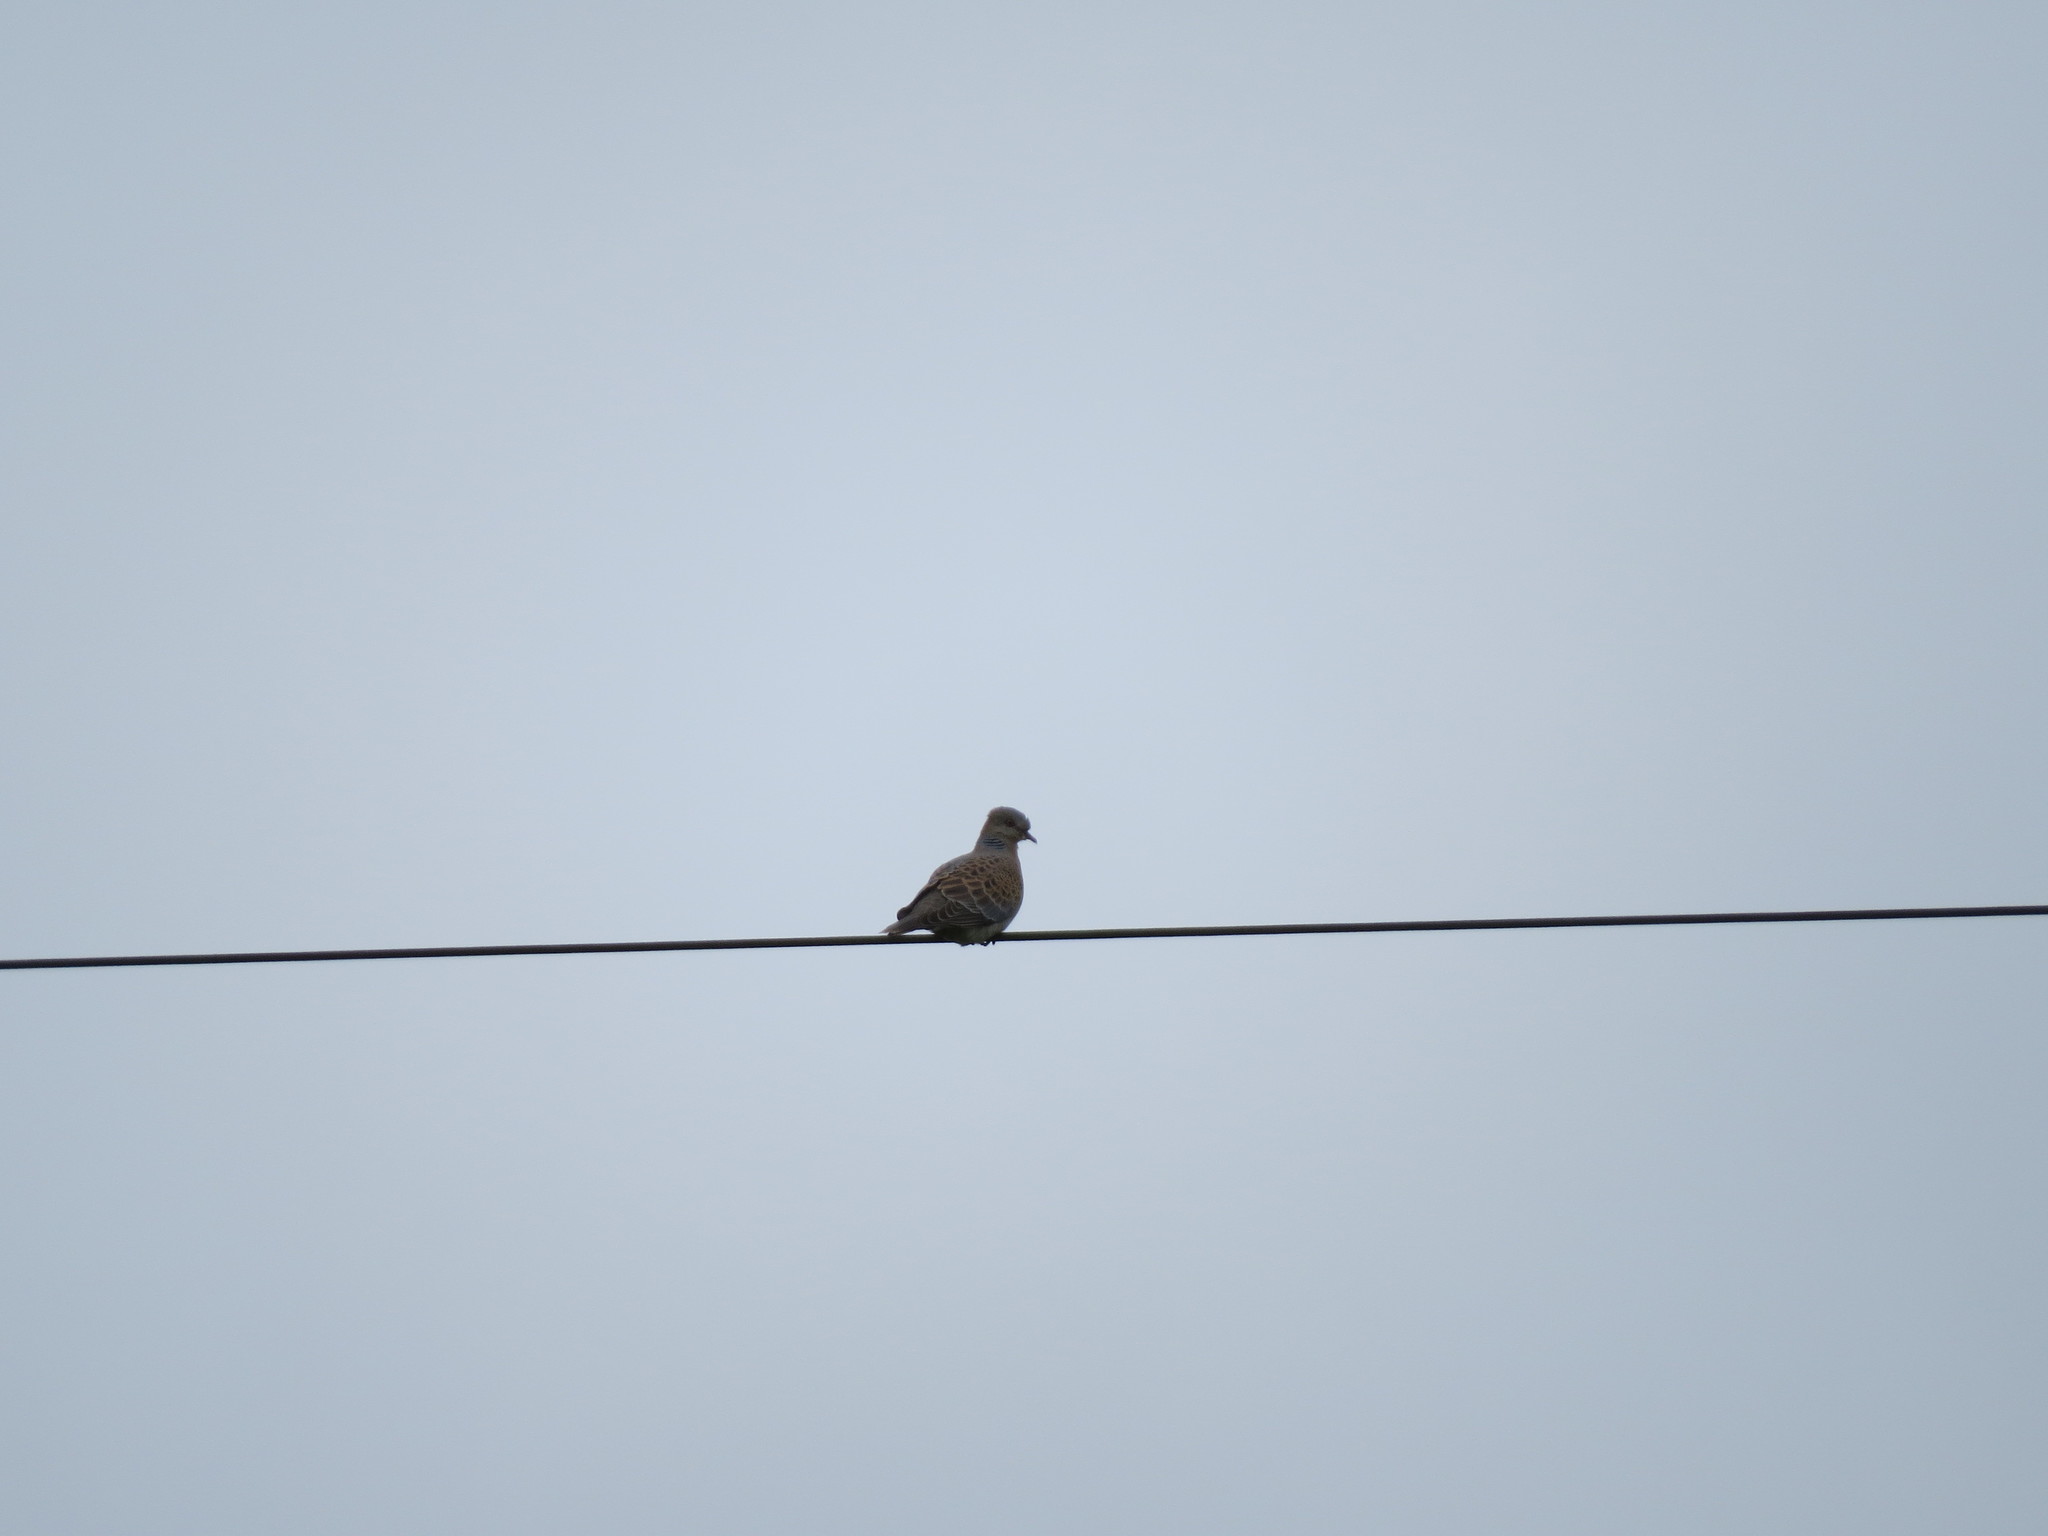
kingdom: Animalia
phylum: Chordata
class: Aves
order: Columbiformes
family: Columbidae
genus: Streptopelia
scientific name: Streptopelia orientalis
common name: Oriental turtle dove
